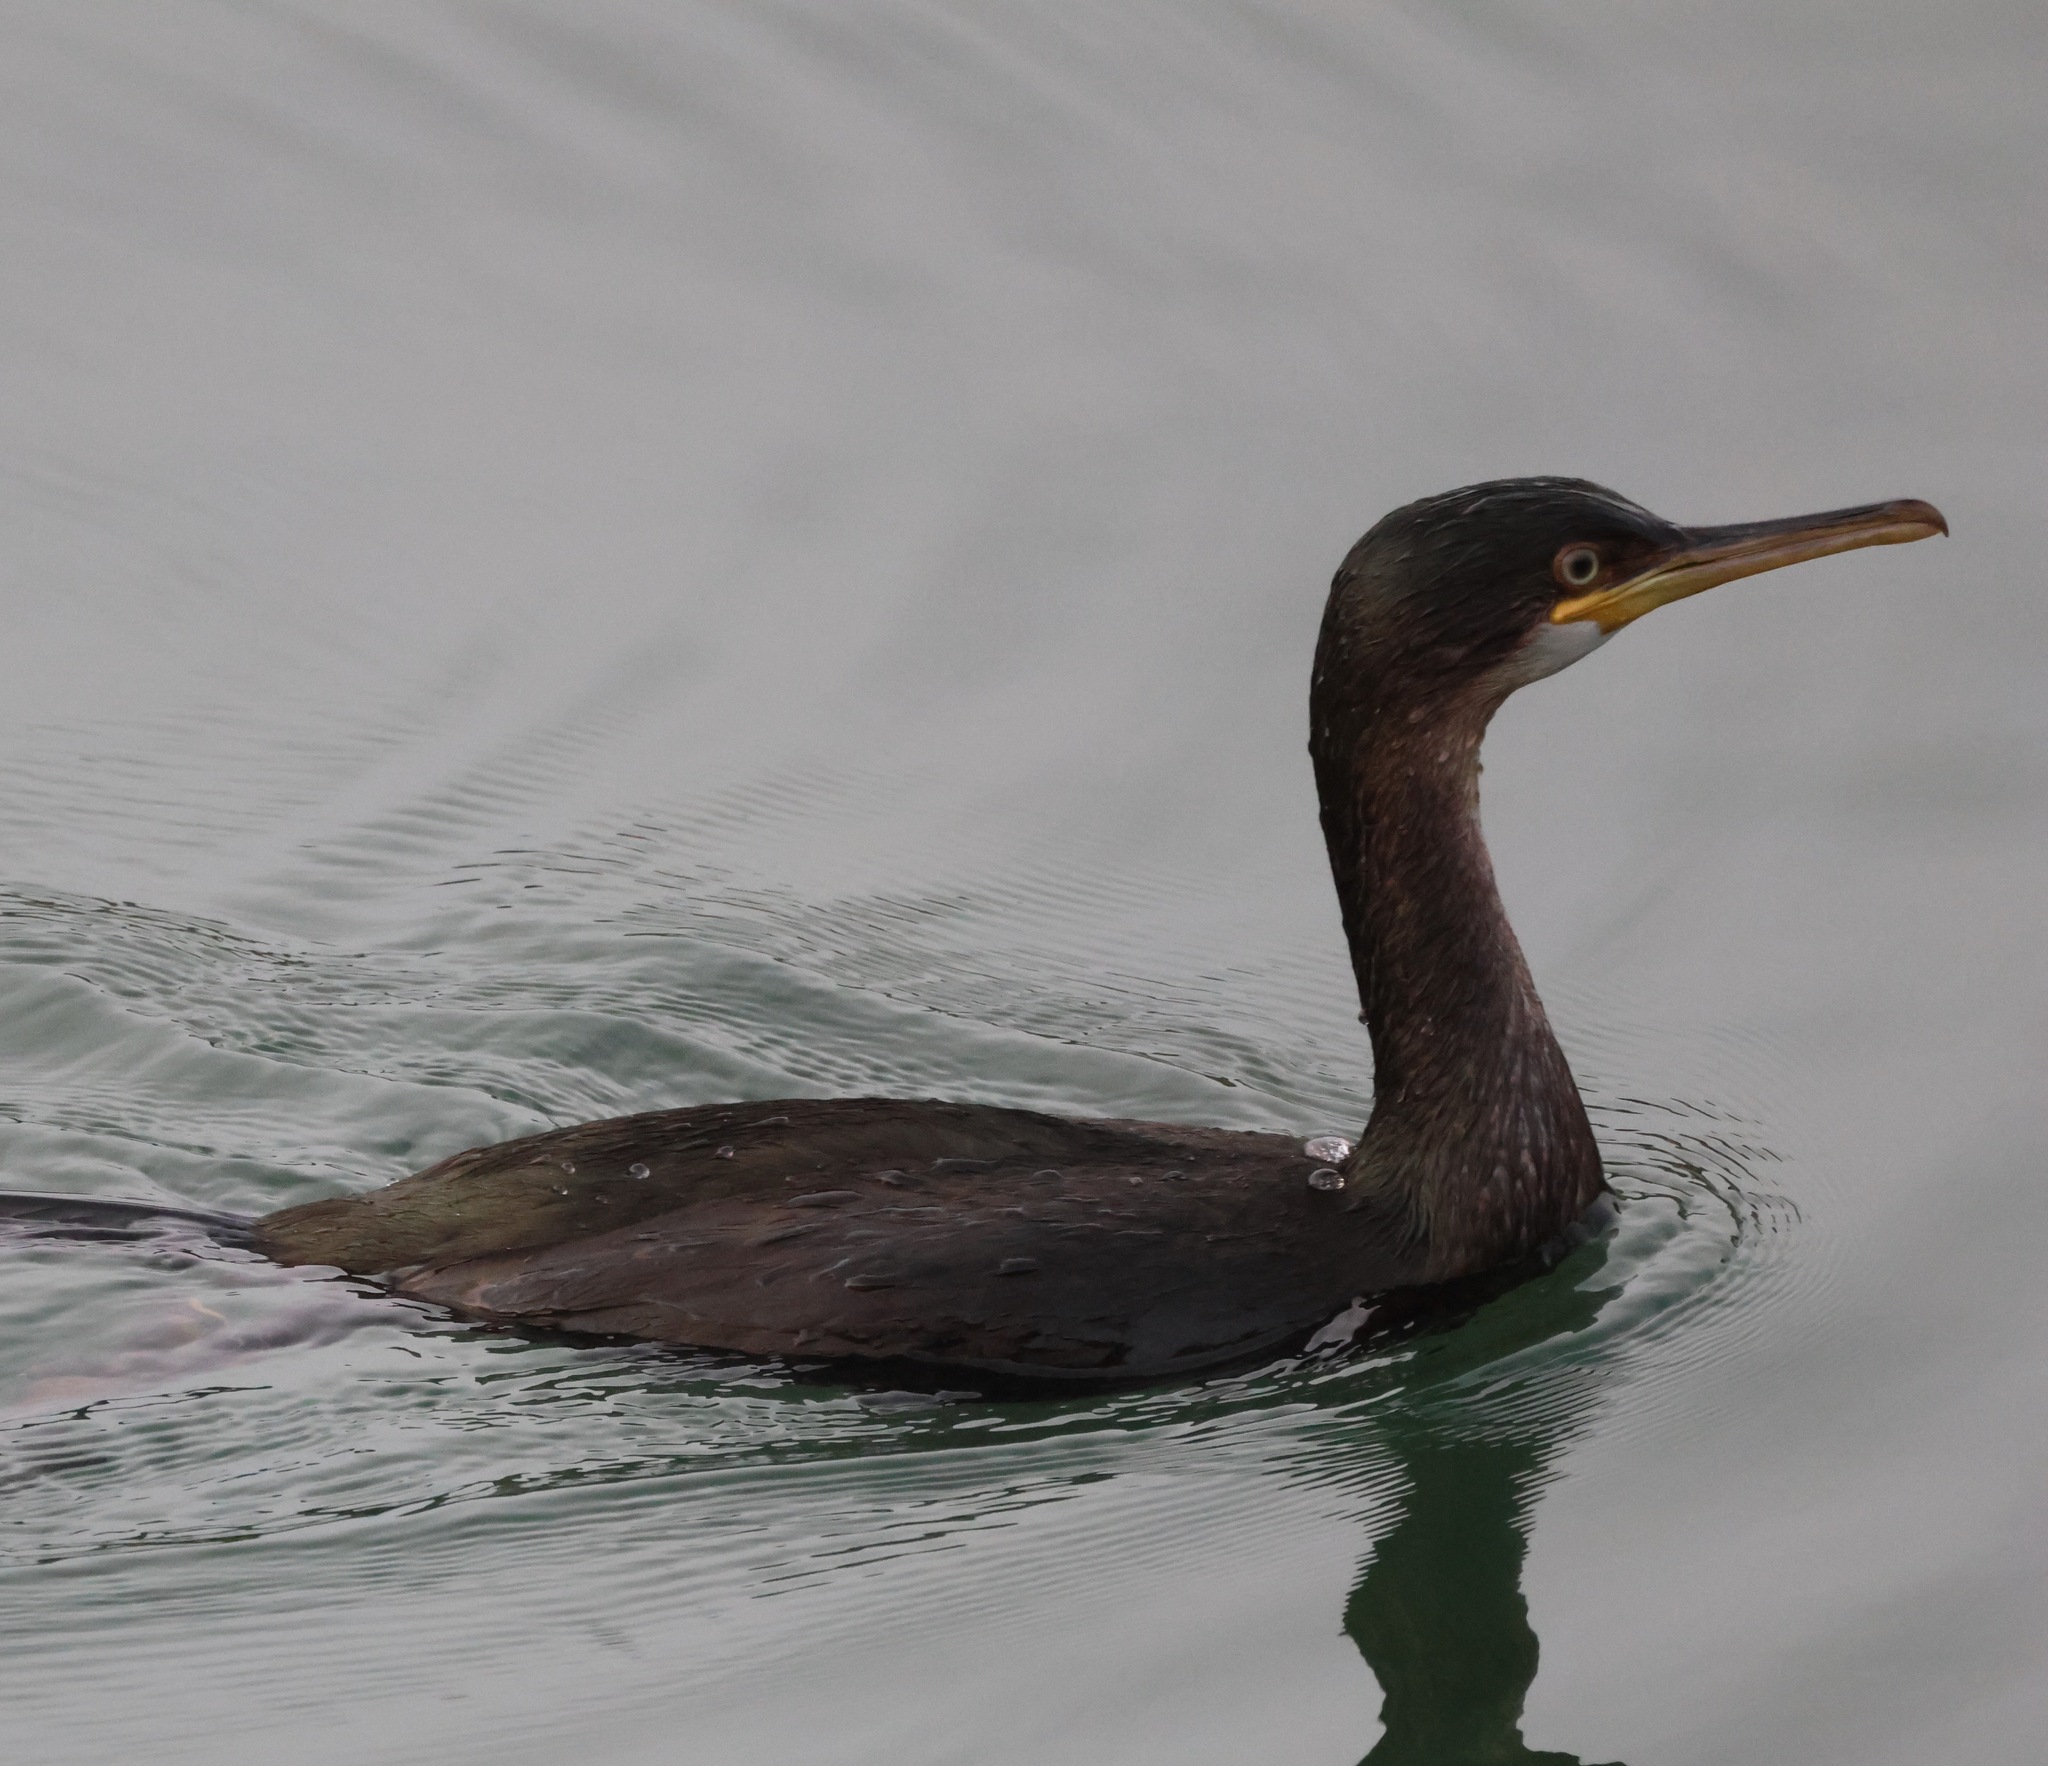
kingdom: Animalia
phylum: Chordata
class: Aves
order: Suliformes
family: Phalacrocoracidae
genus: Phalacrocorax
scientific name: Phalacrocorax aristotelis
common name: European shag
